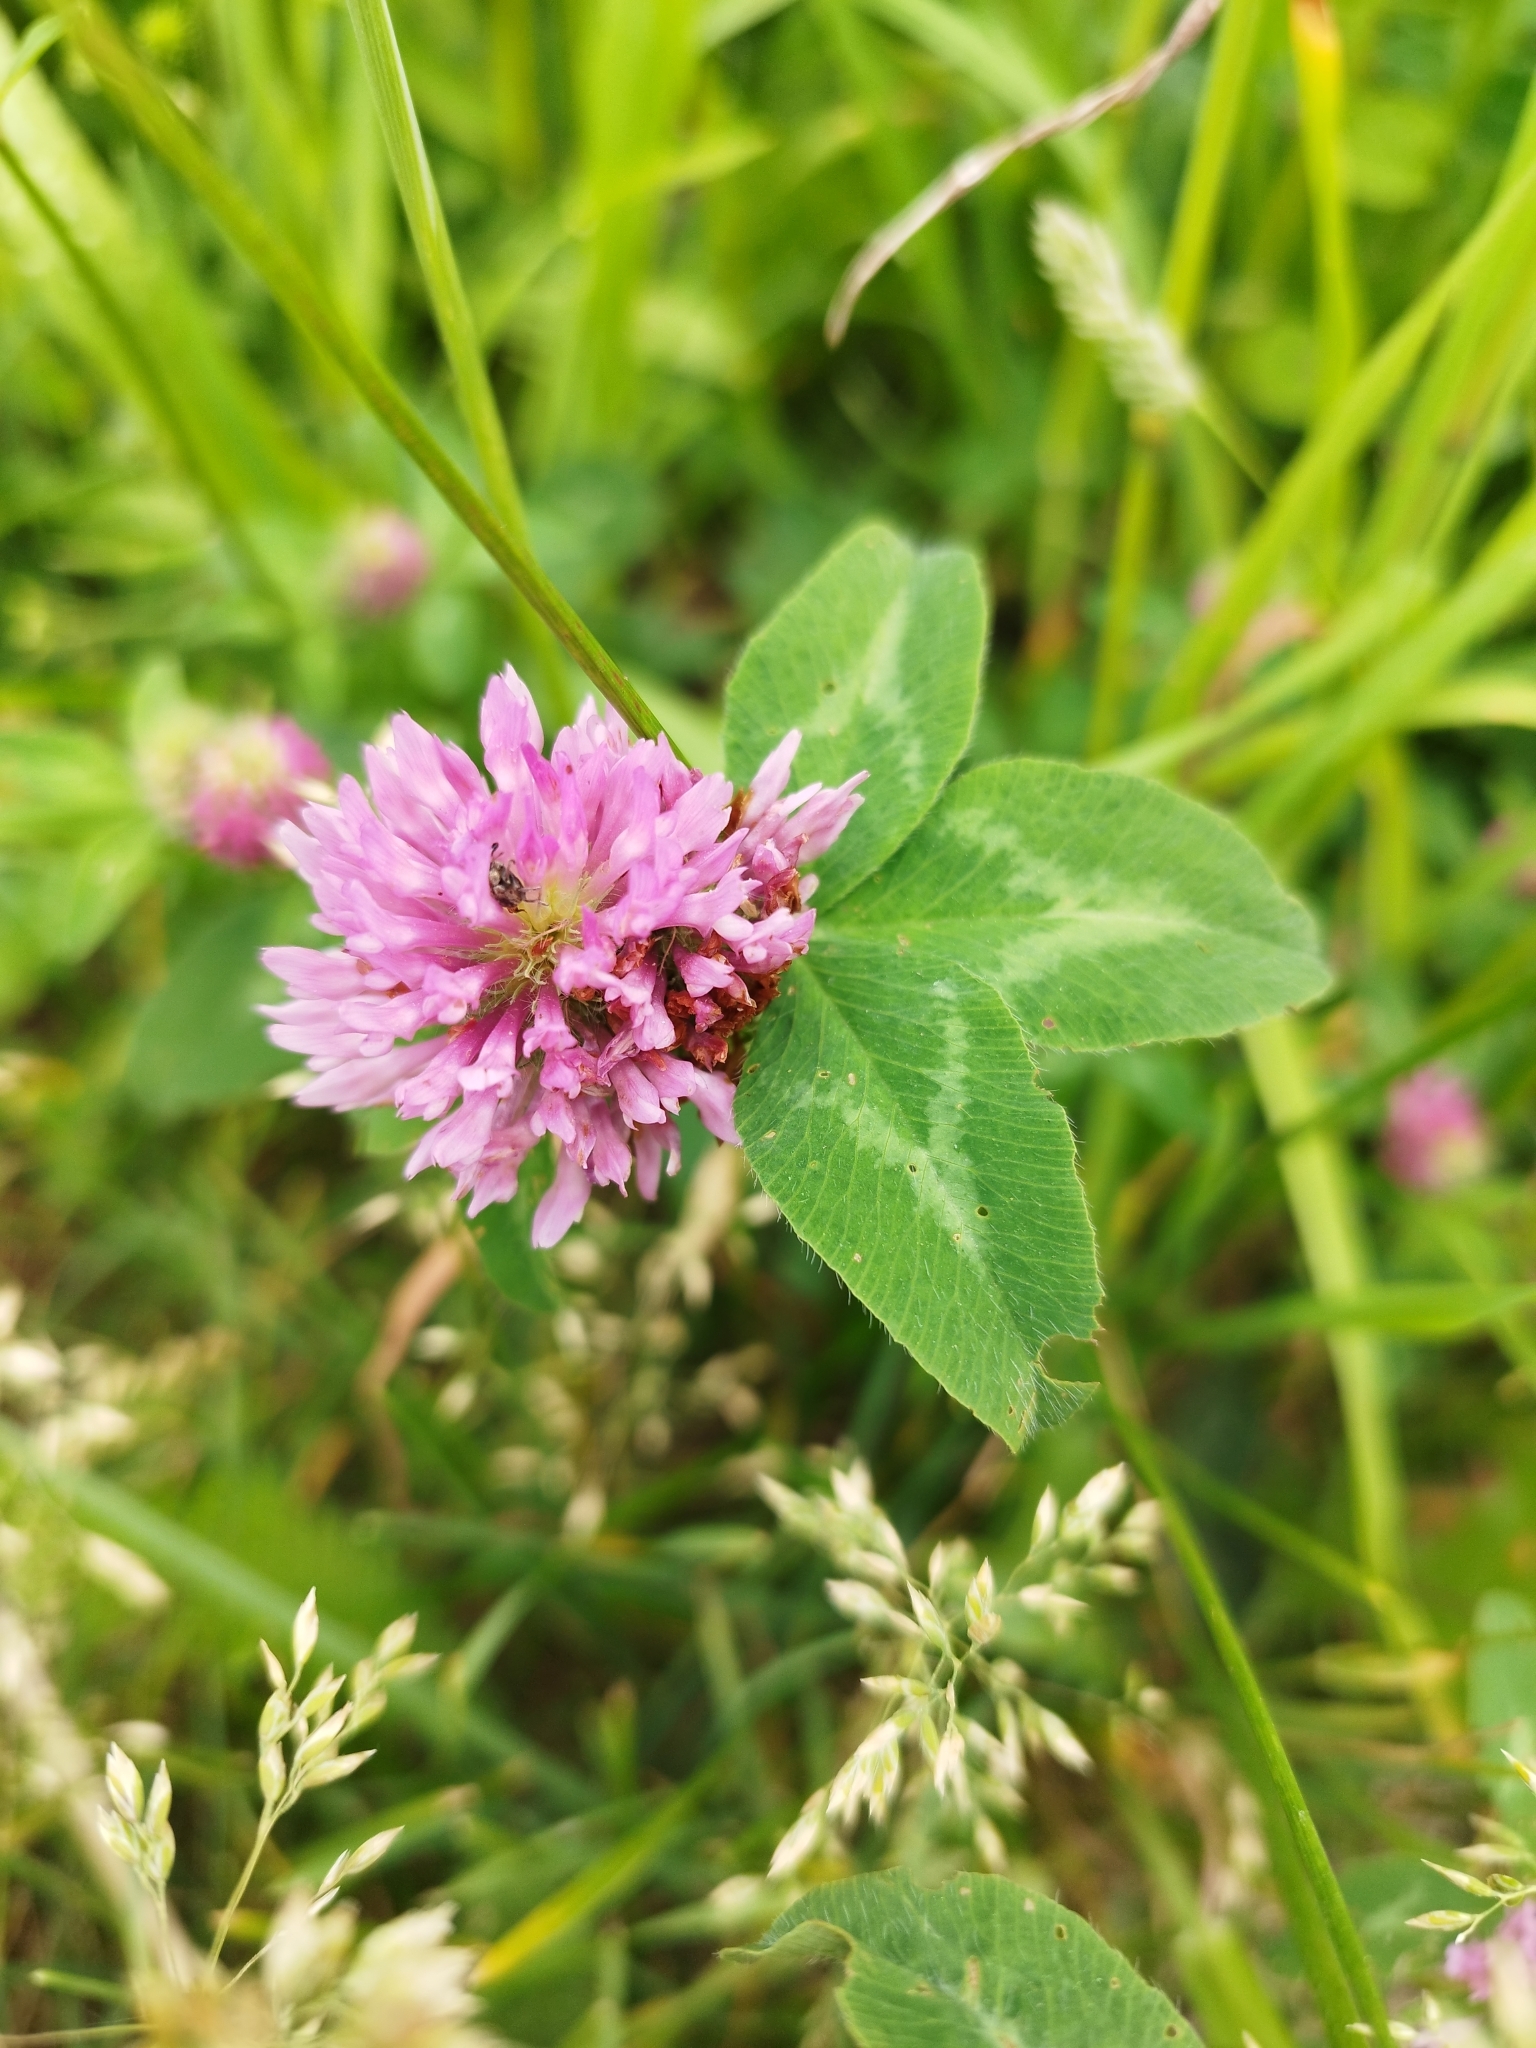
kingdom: Plantae
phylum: Tracheophyta
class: Magnoliopsida
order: Fabales
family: Fabaceae
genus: Trifolium
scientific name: Trifolium pratense
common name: Red clover
